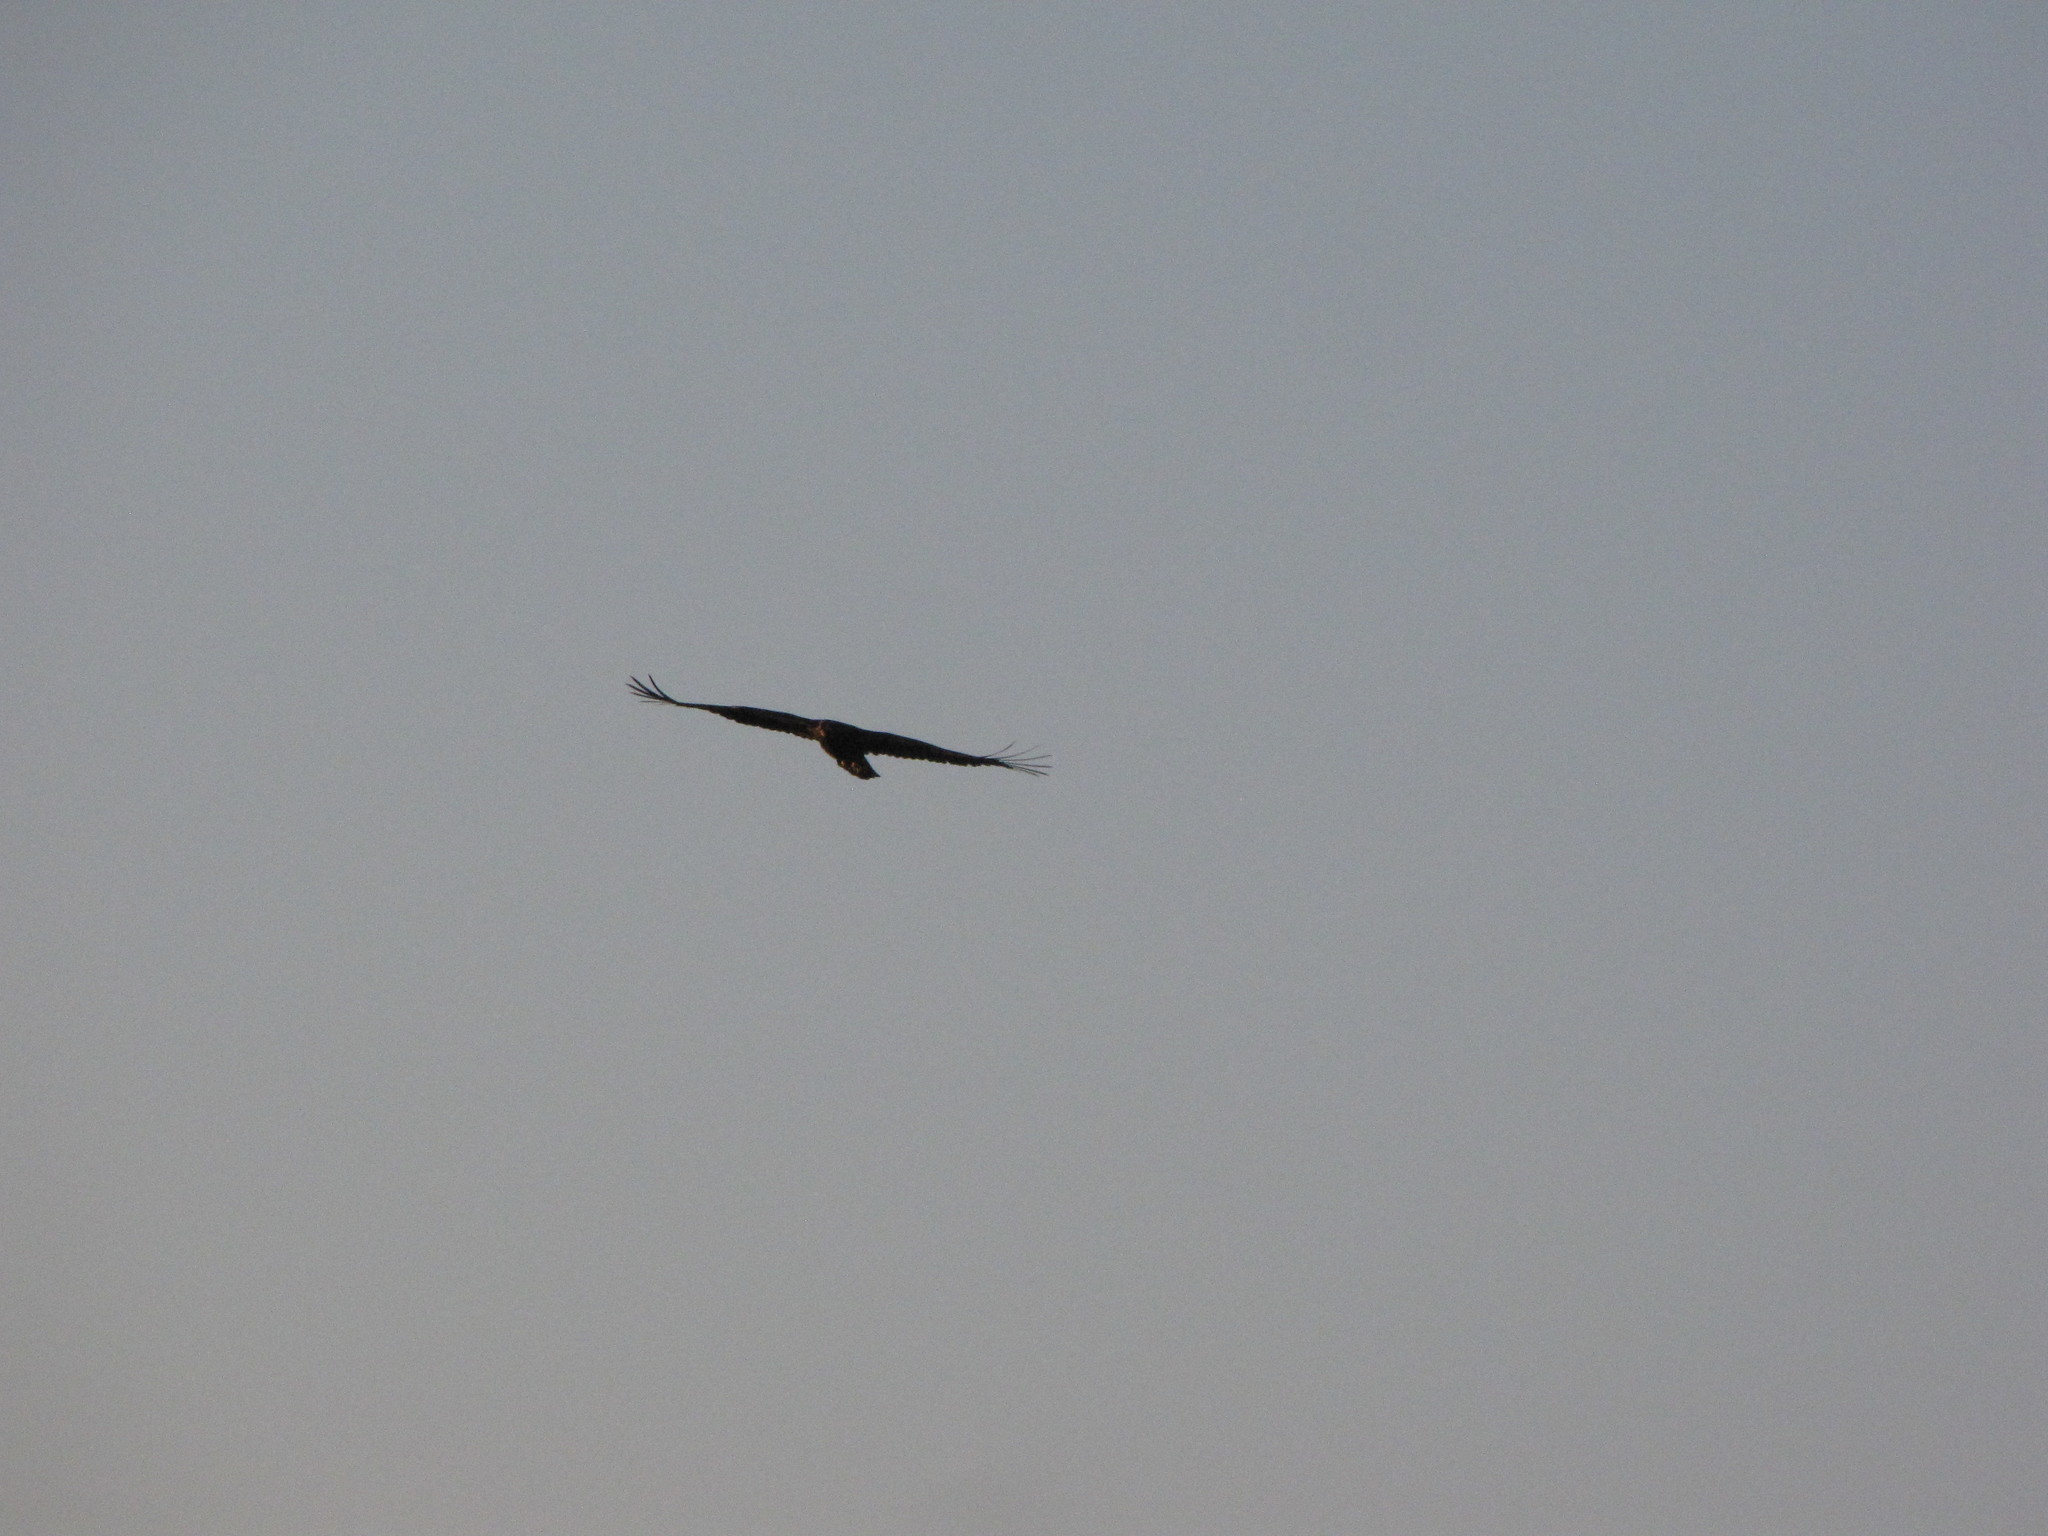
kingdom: Animalia
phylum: Chordata
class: Aves
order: Accipitriformes
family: Cathartidae
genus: Cathartes
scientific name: Cathartes aura
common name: Turkey vulture
